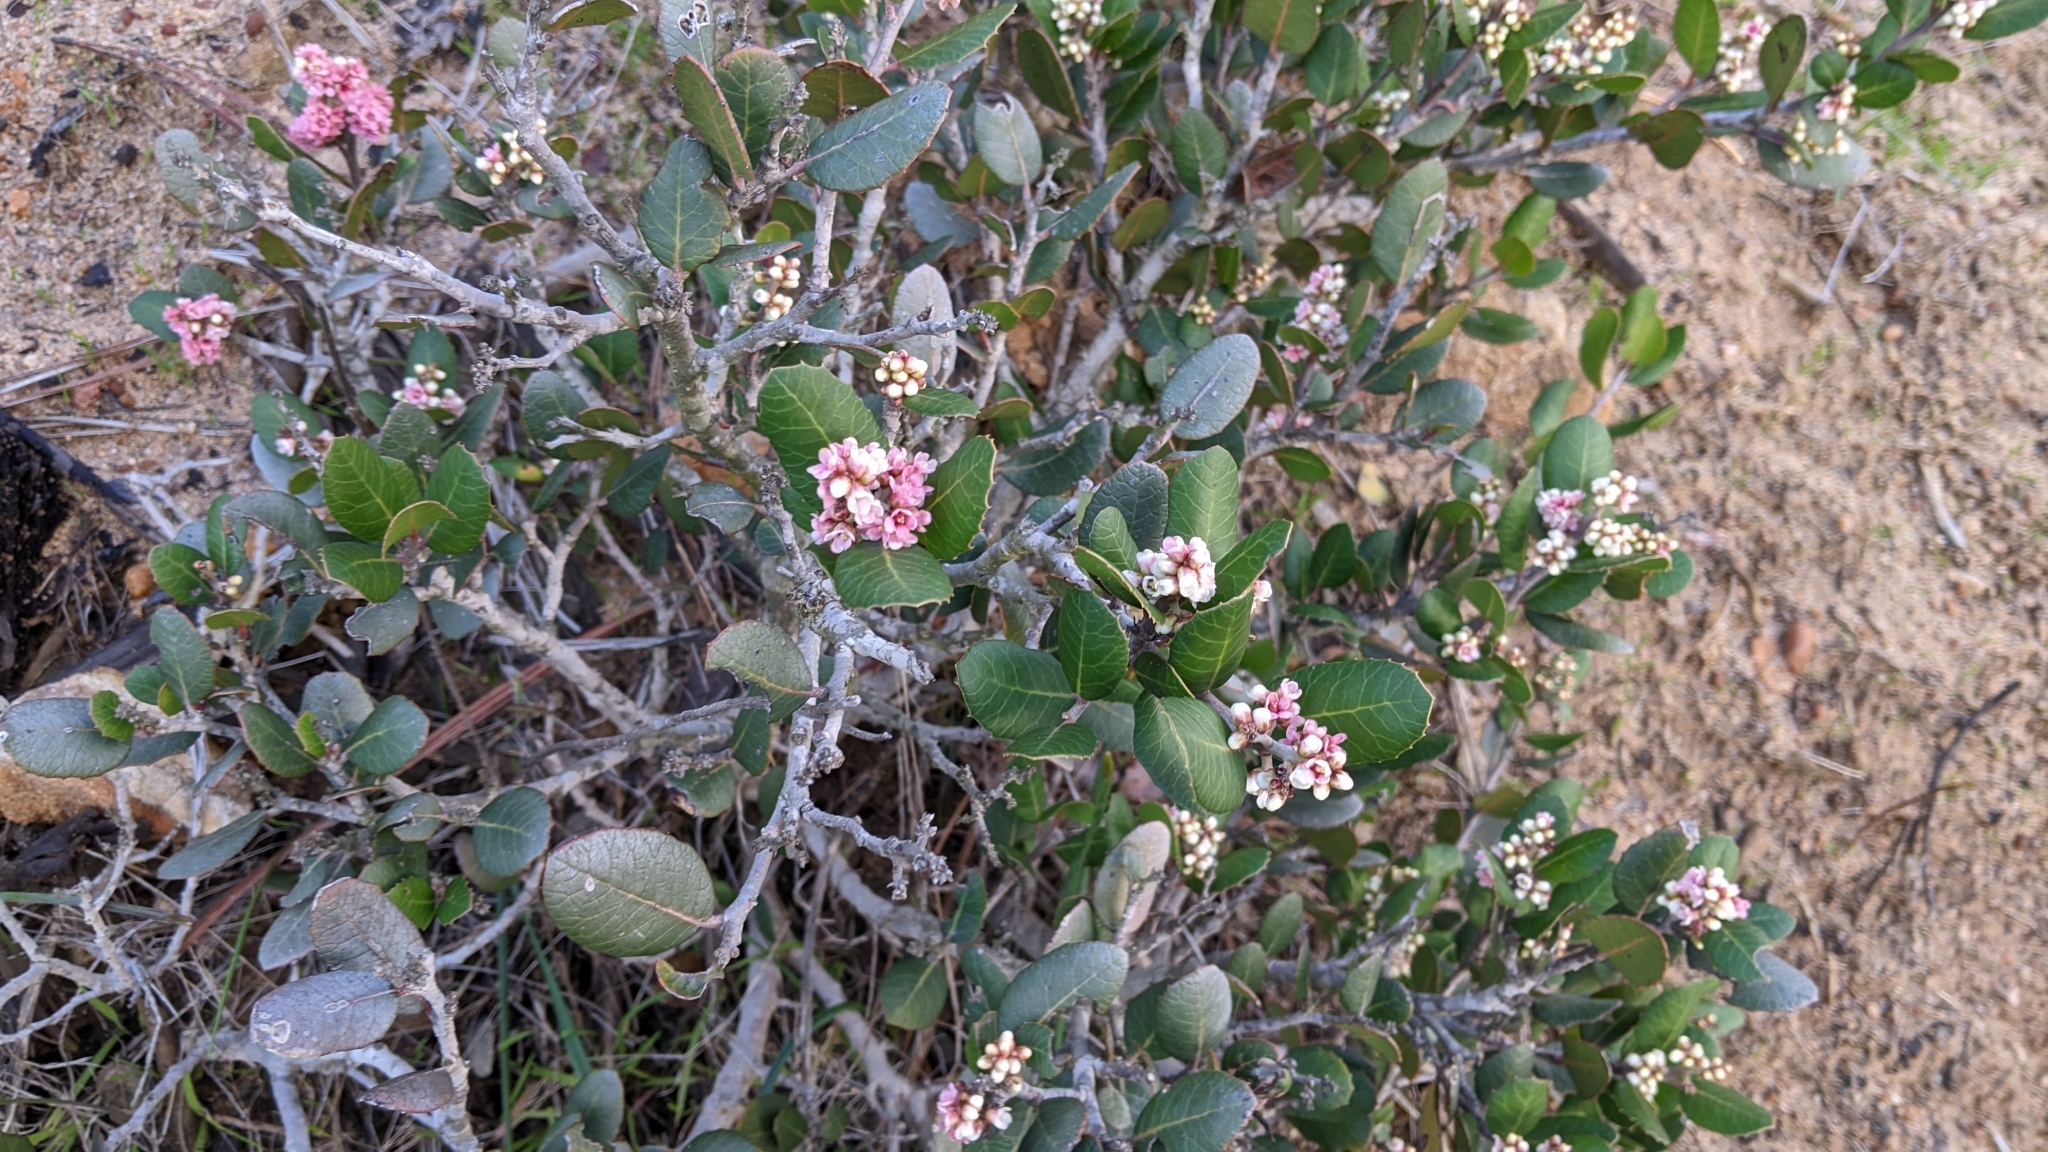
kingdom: Plantae
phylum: Tracheophyta
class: Magnoliopsida
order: Sapindales
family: Anacardiaceae
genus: Rhus
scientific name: Rhus integrifolia
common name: Lemonade sumac
